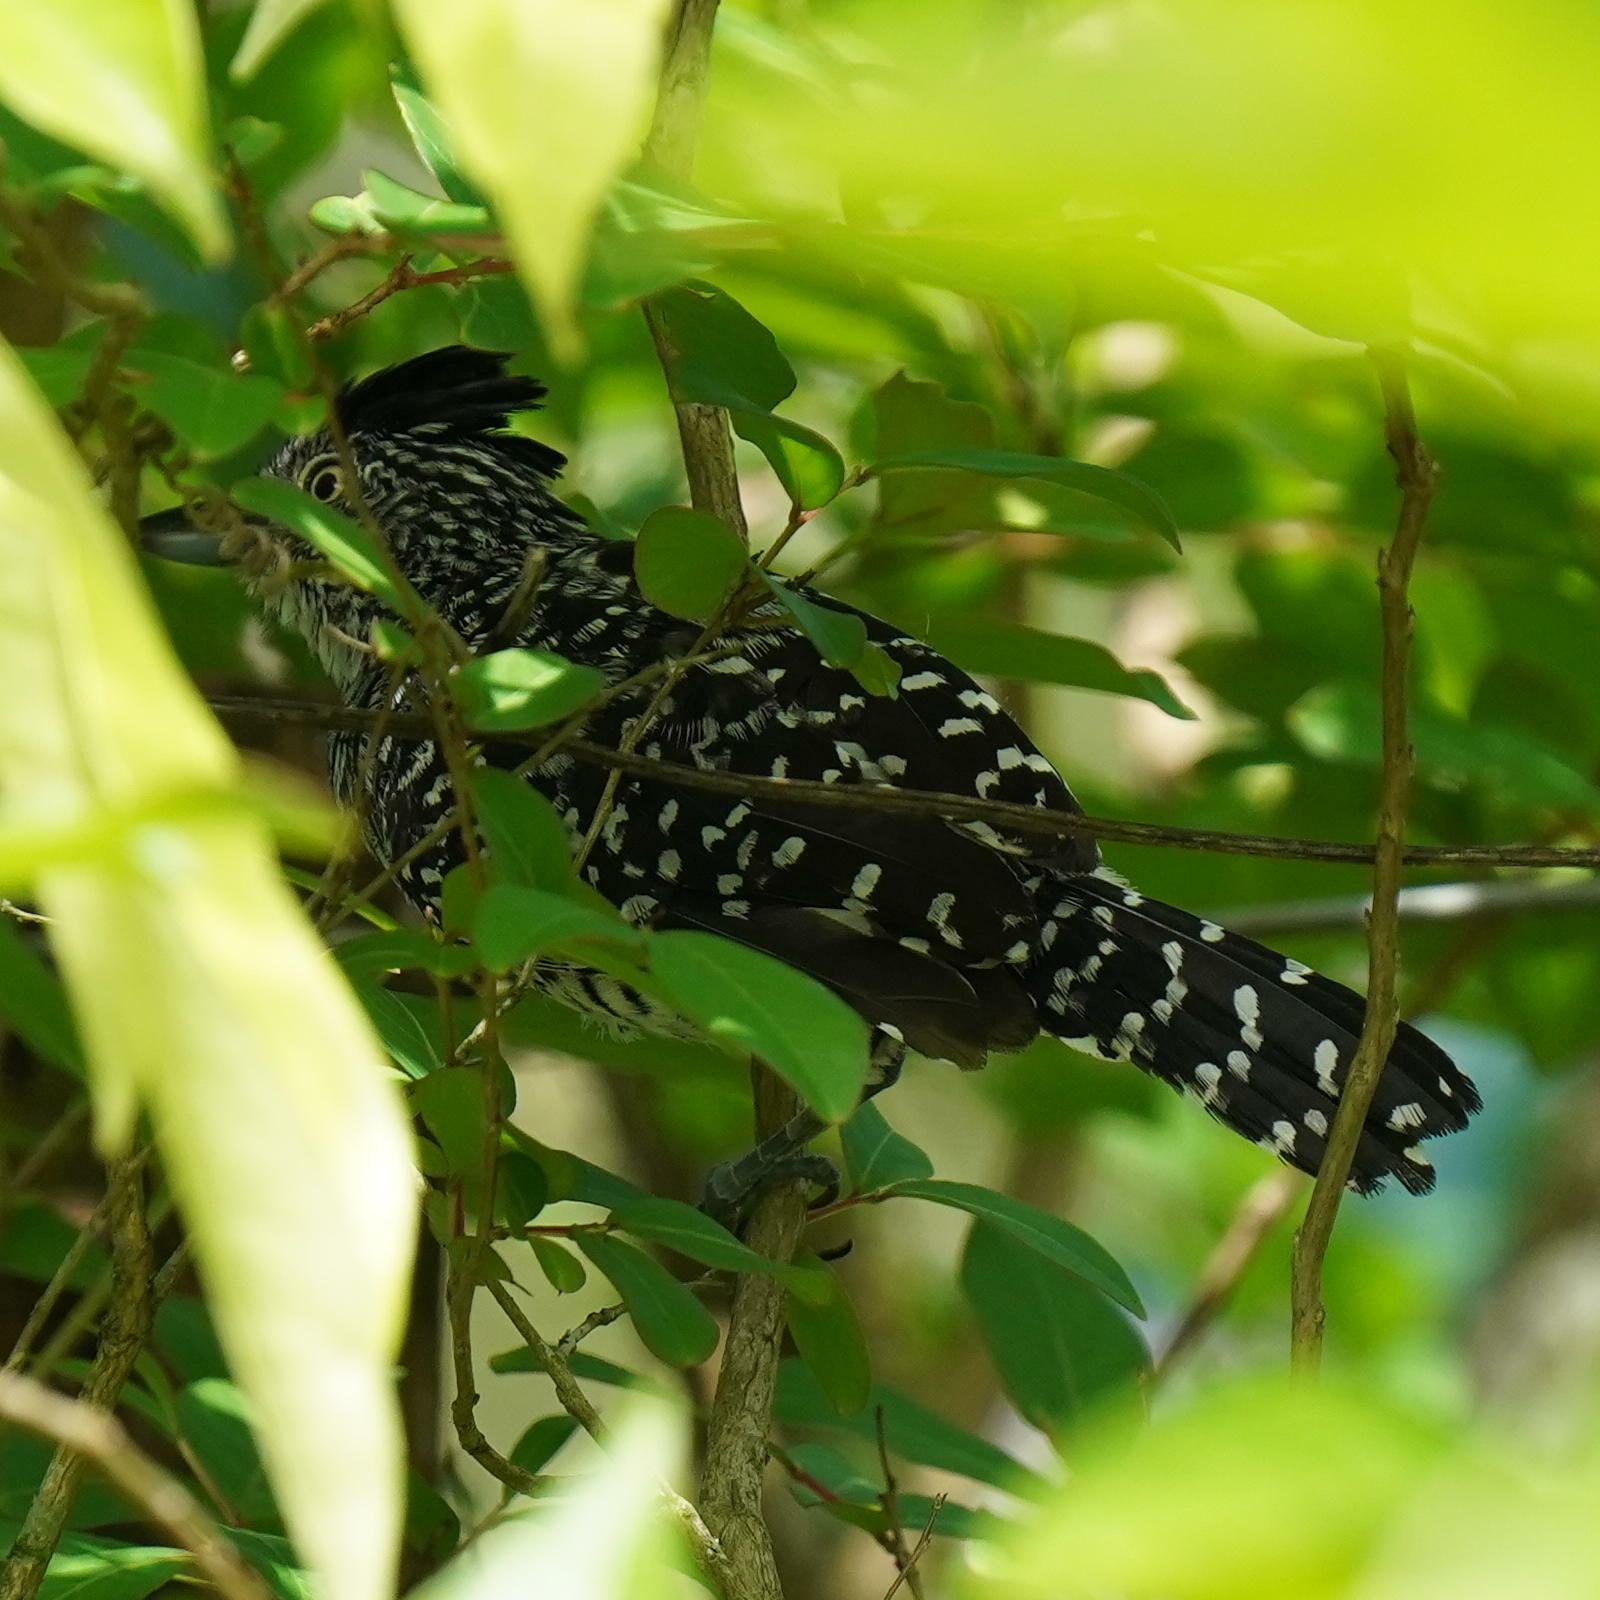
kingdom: Animalia
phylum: Chordata
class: Aves
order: Passeriformes
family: Thamnophilidae
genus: Thamnophilus
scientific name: Thamnophilus doliatus
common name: Barred antshrike
